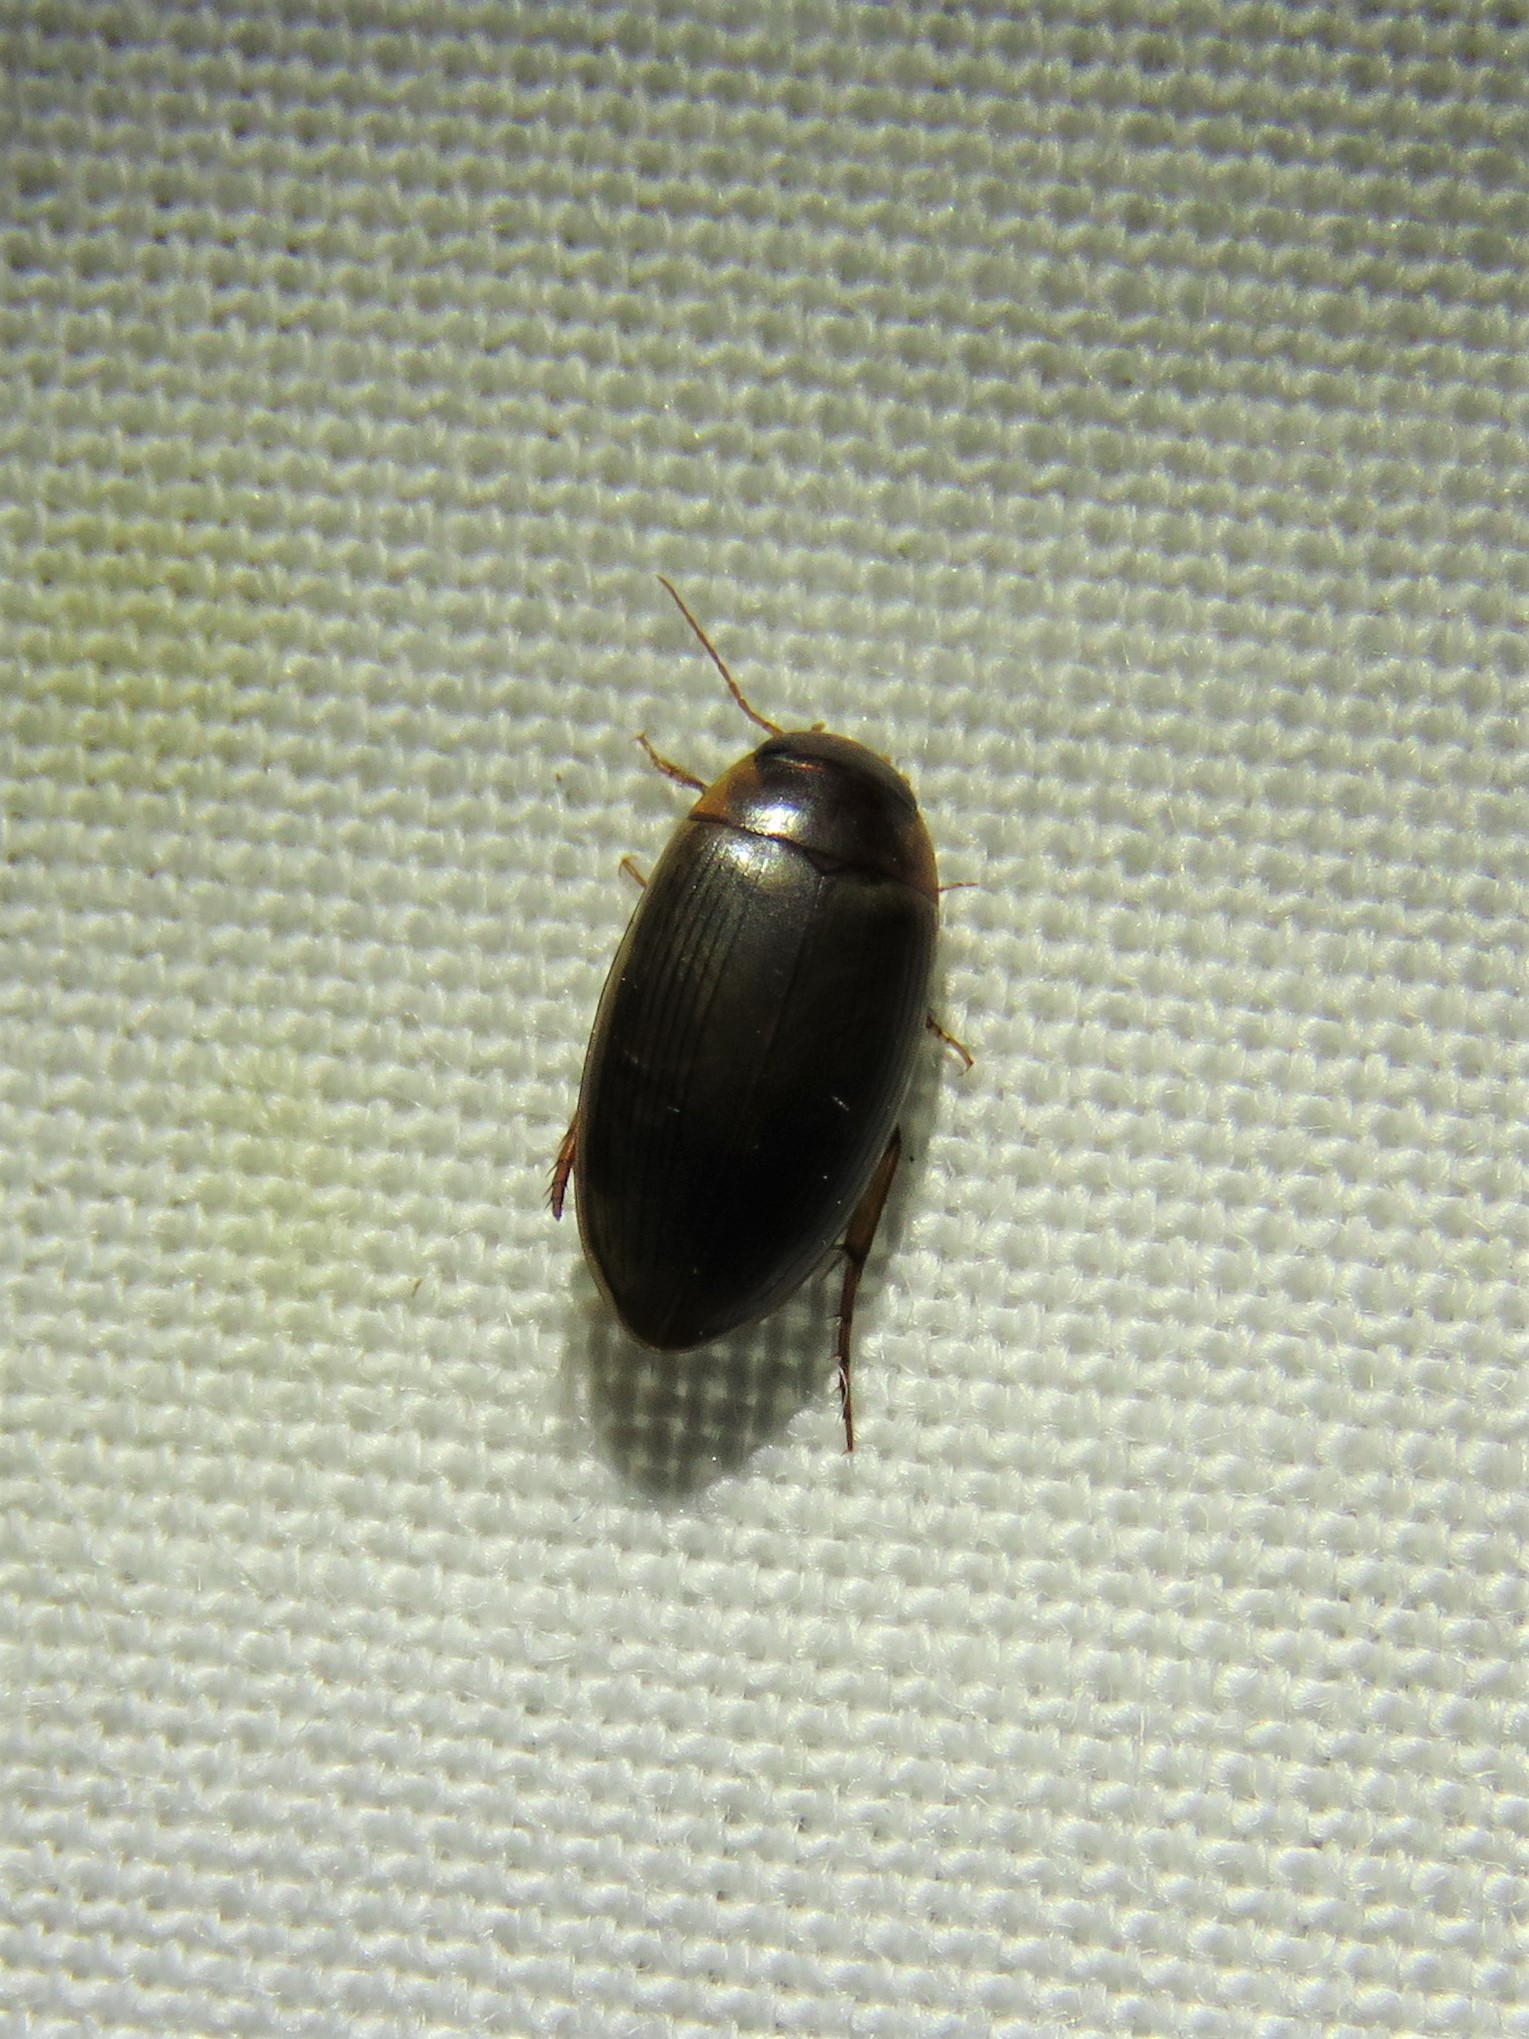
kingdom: Animalia
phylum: Arthropoda
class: Insecta
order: Coleoptera
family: Dytiscidae
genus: Copelatus
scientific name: Copelatus chevrolati
